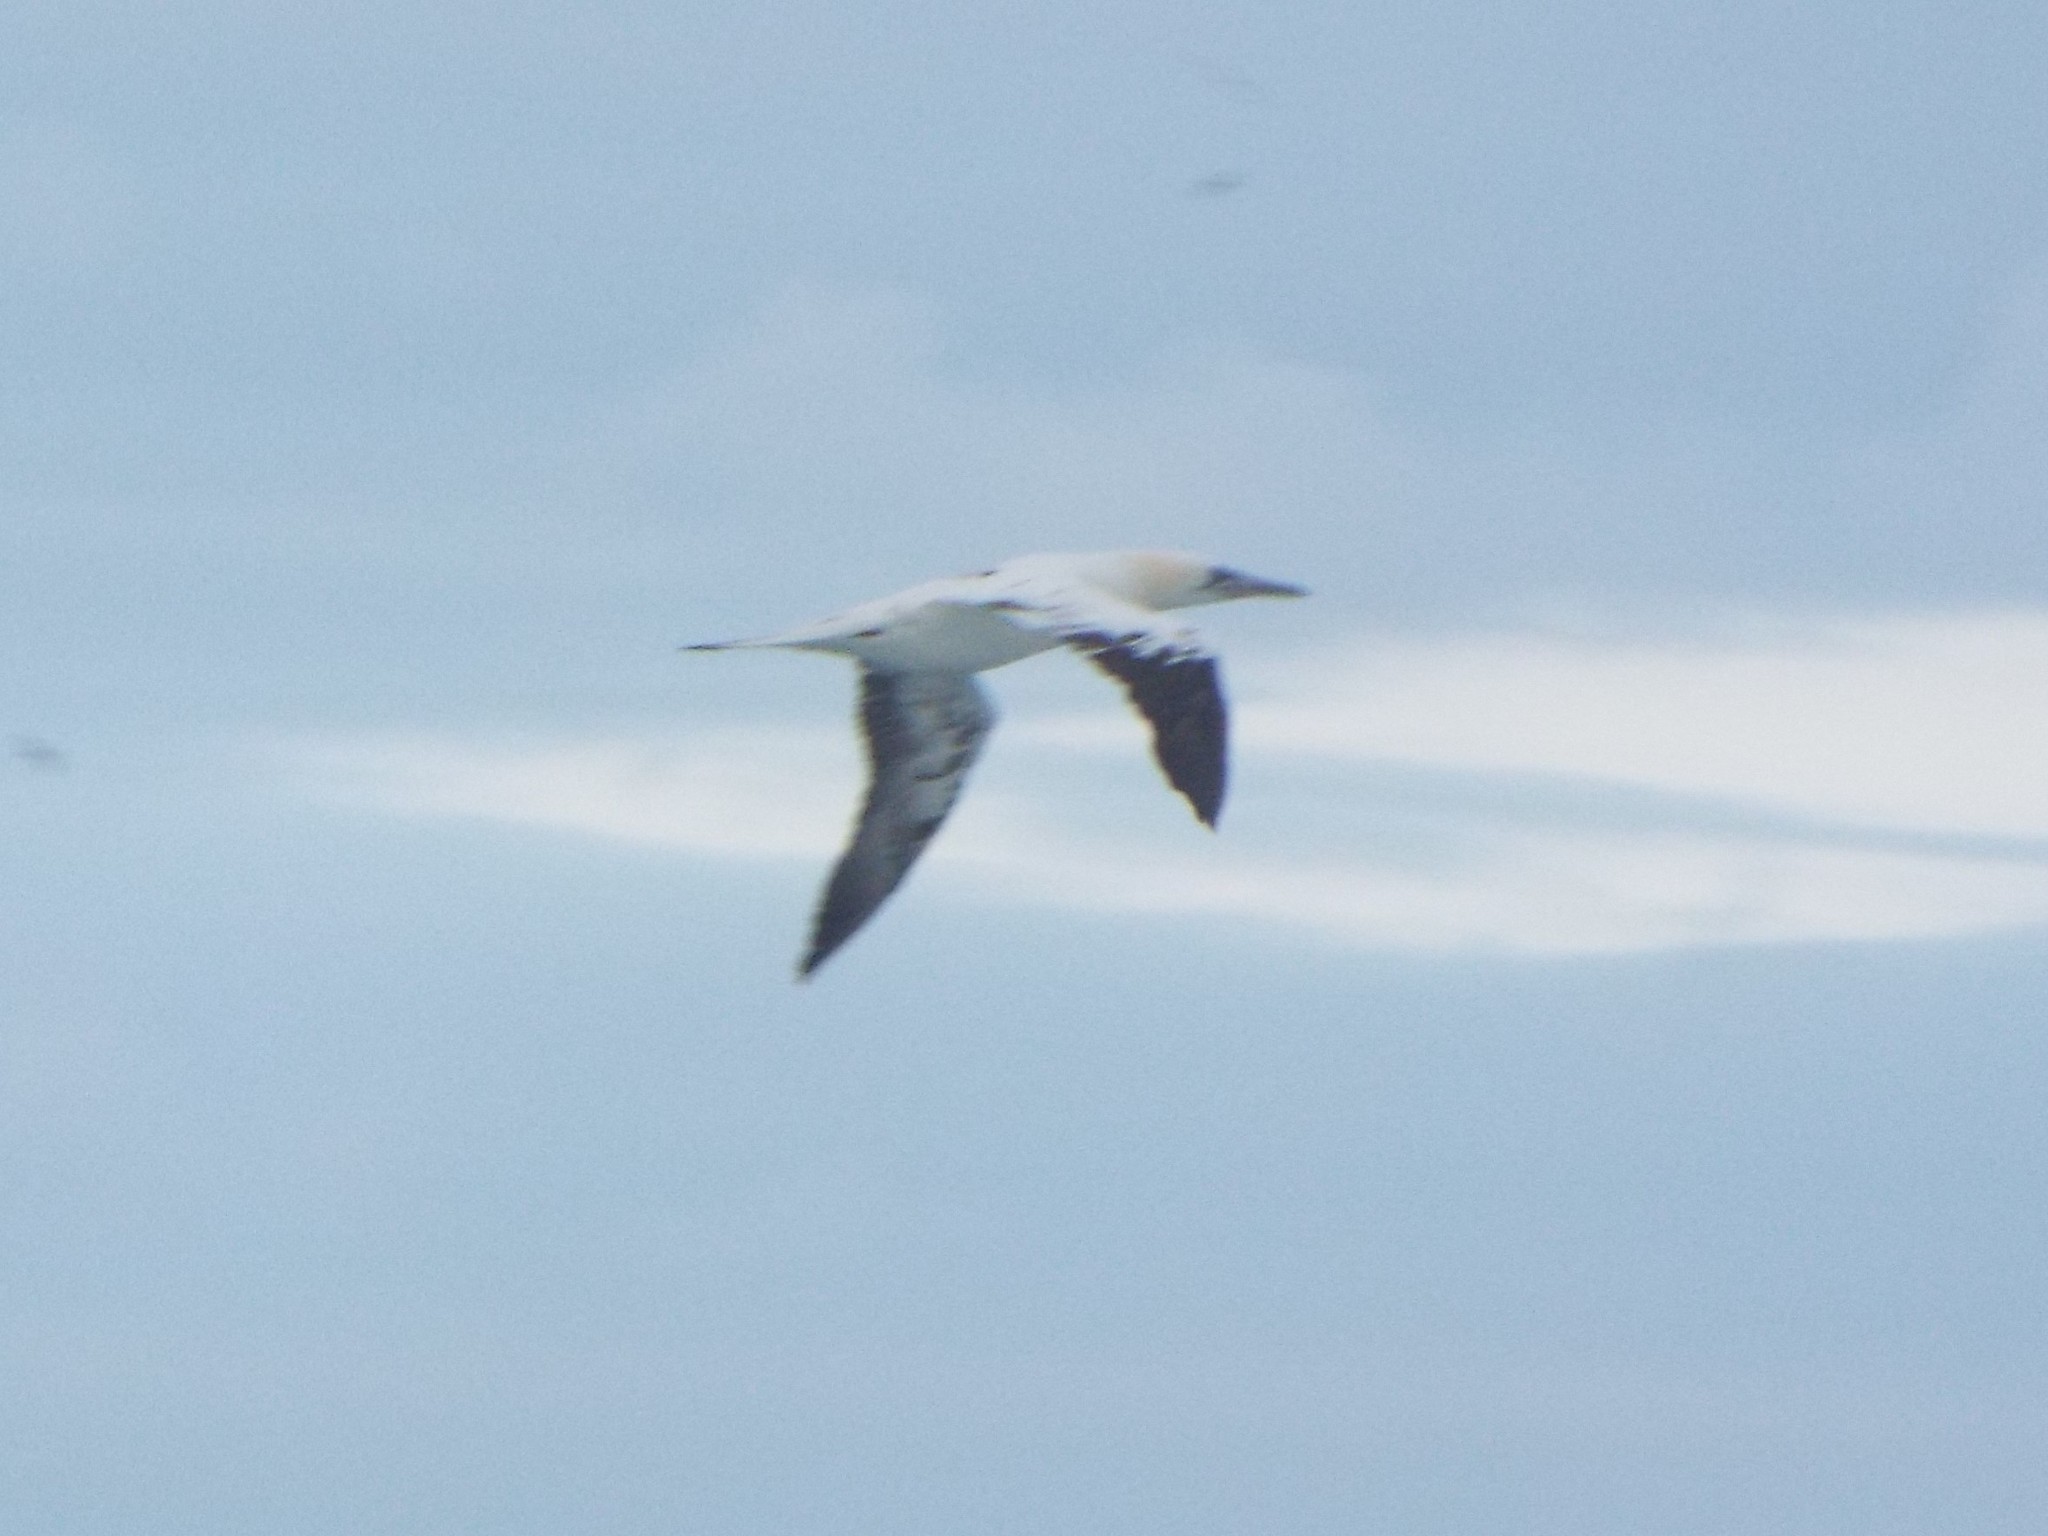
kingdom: Animalia
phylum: Chordata
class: Aves
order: Suliformes
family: Sulidae
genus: Morus
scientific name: Morus bassanus
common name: Northern gannet
